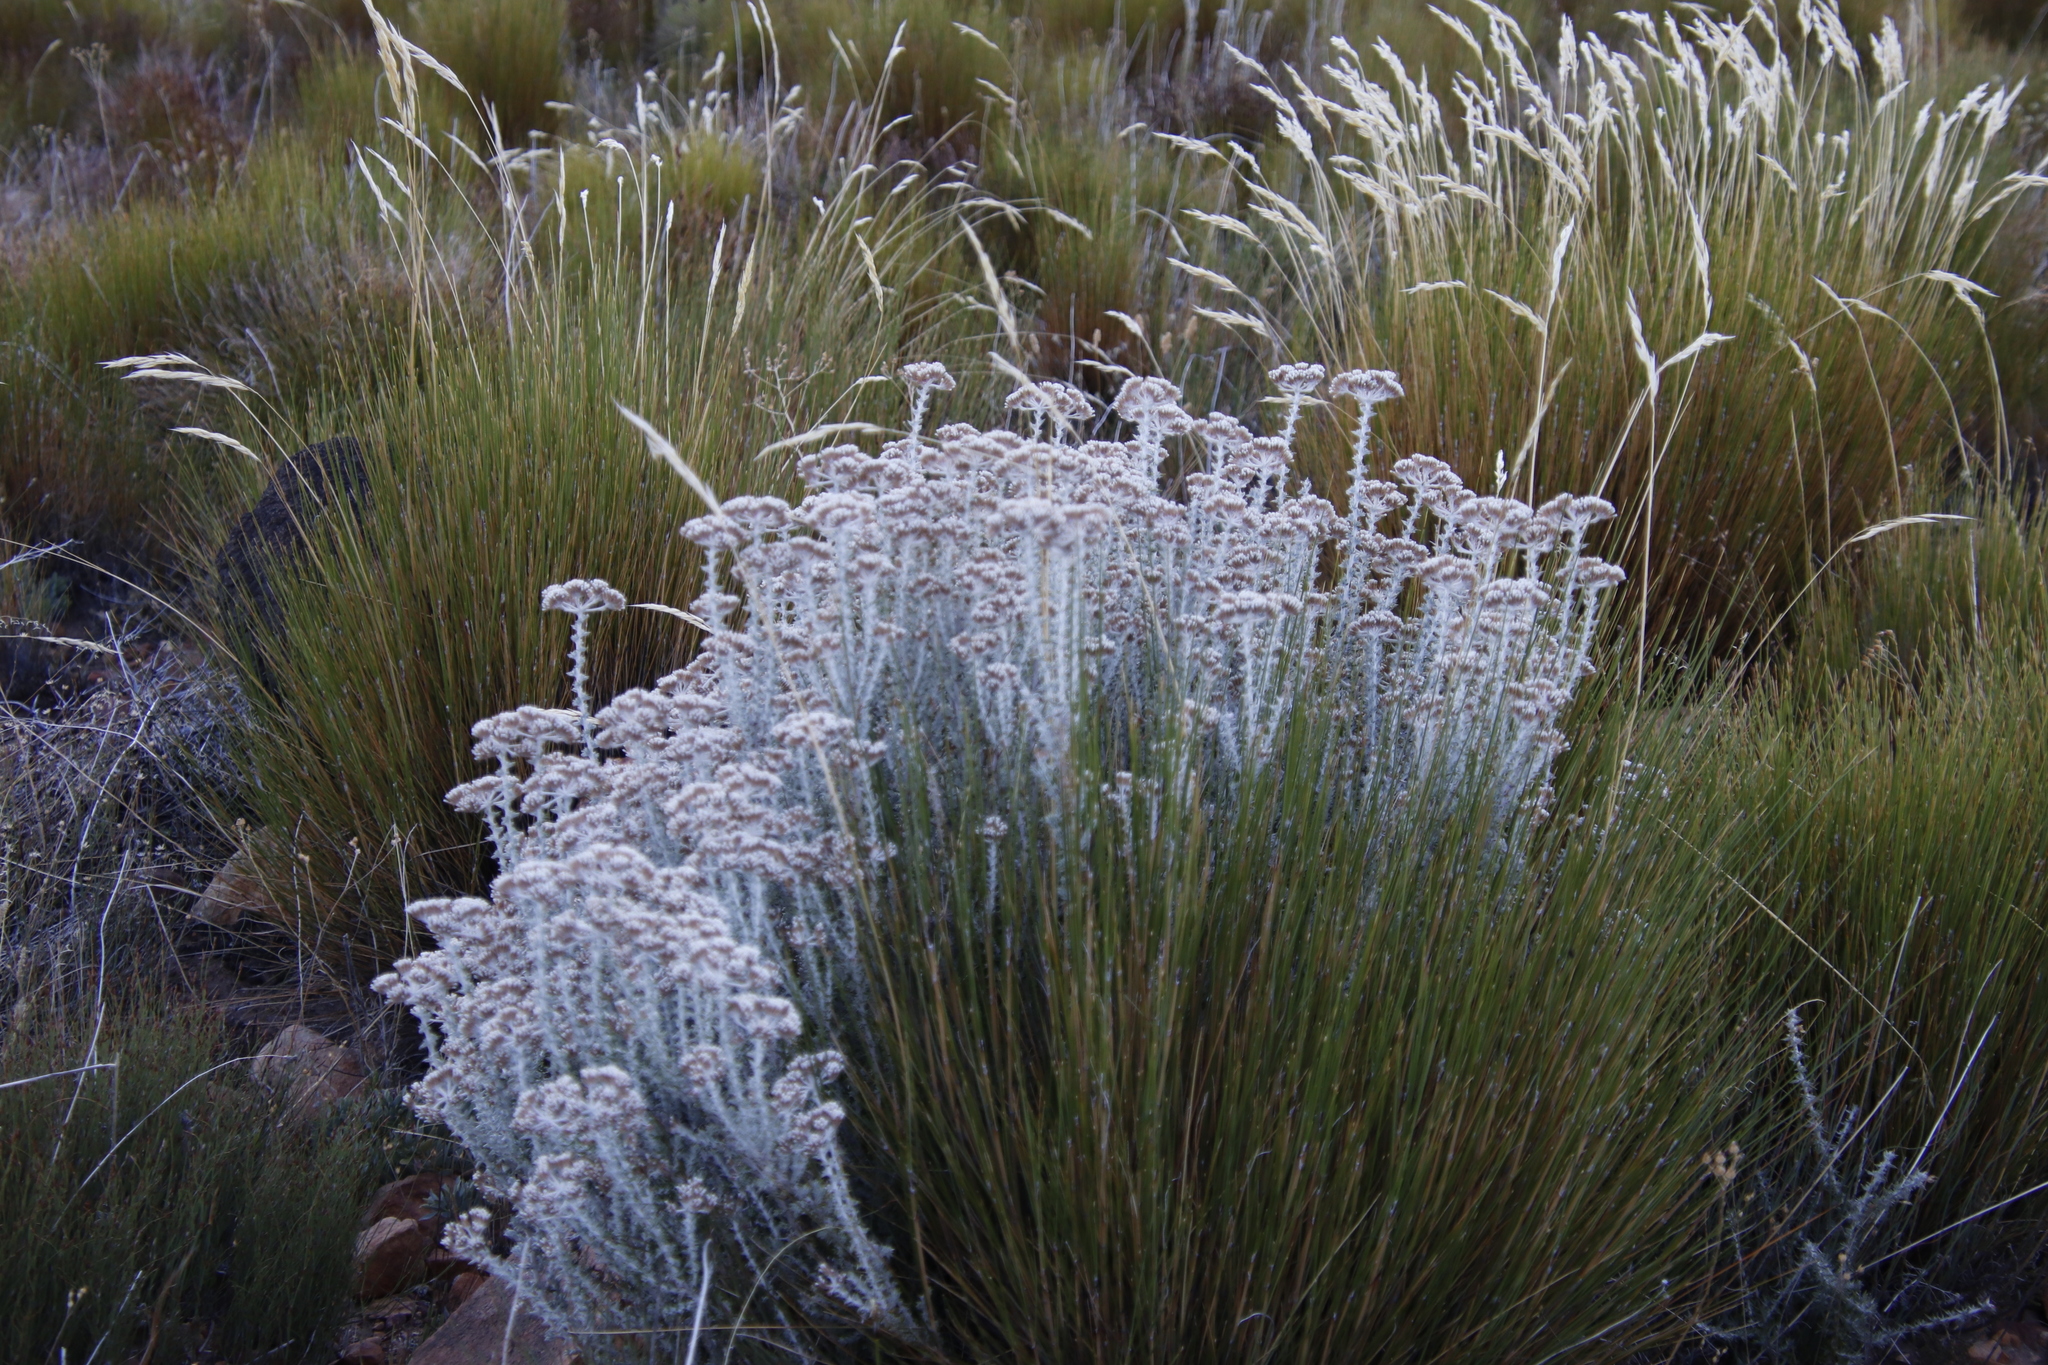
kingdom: Plantae
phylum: Tracheophyta
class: Magnoliopsida
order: Asterales
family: Asteraceae
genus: Metalasia
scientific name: Metalasia densa
